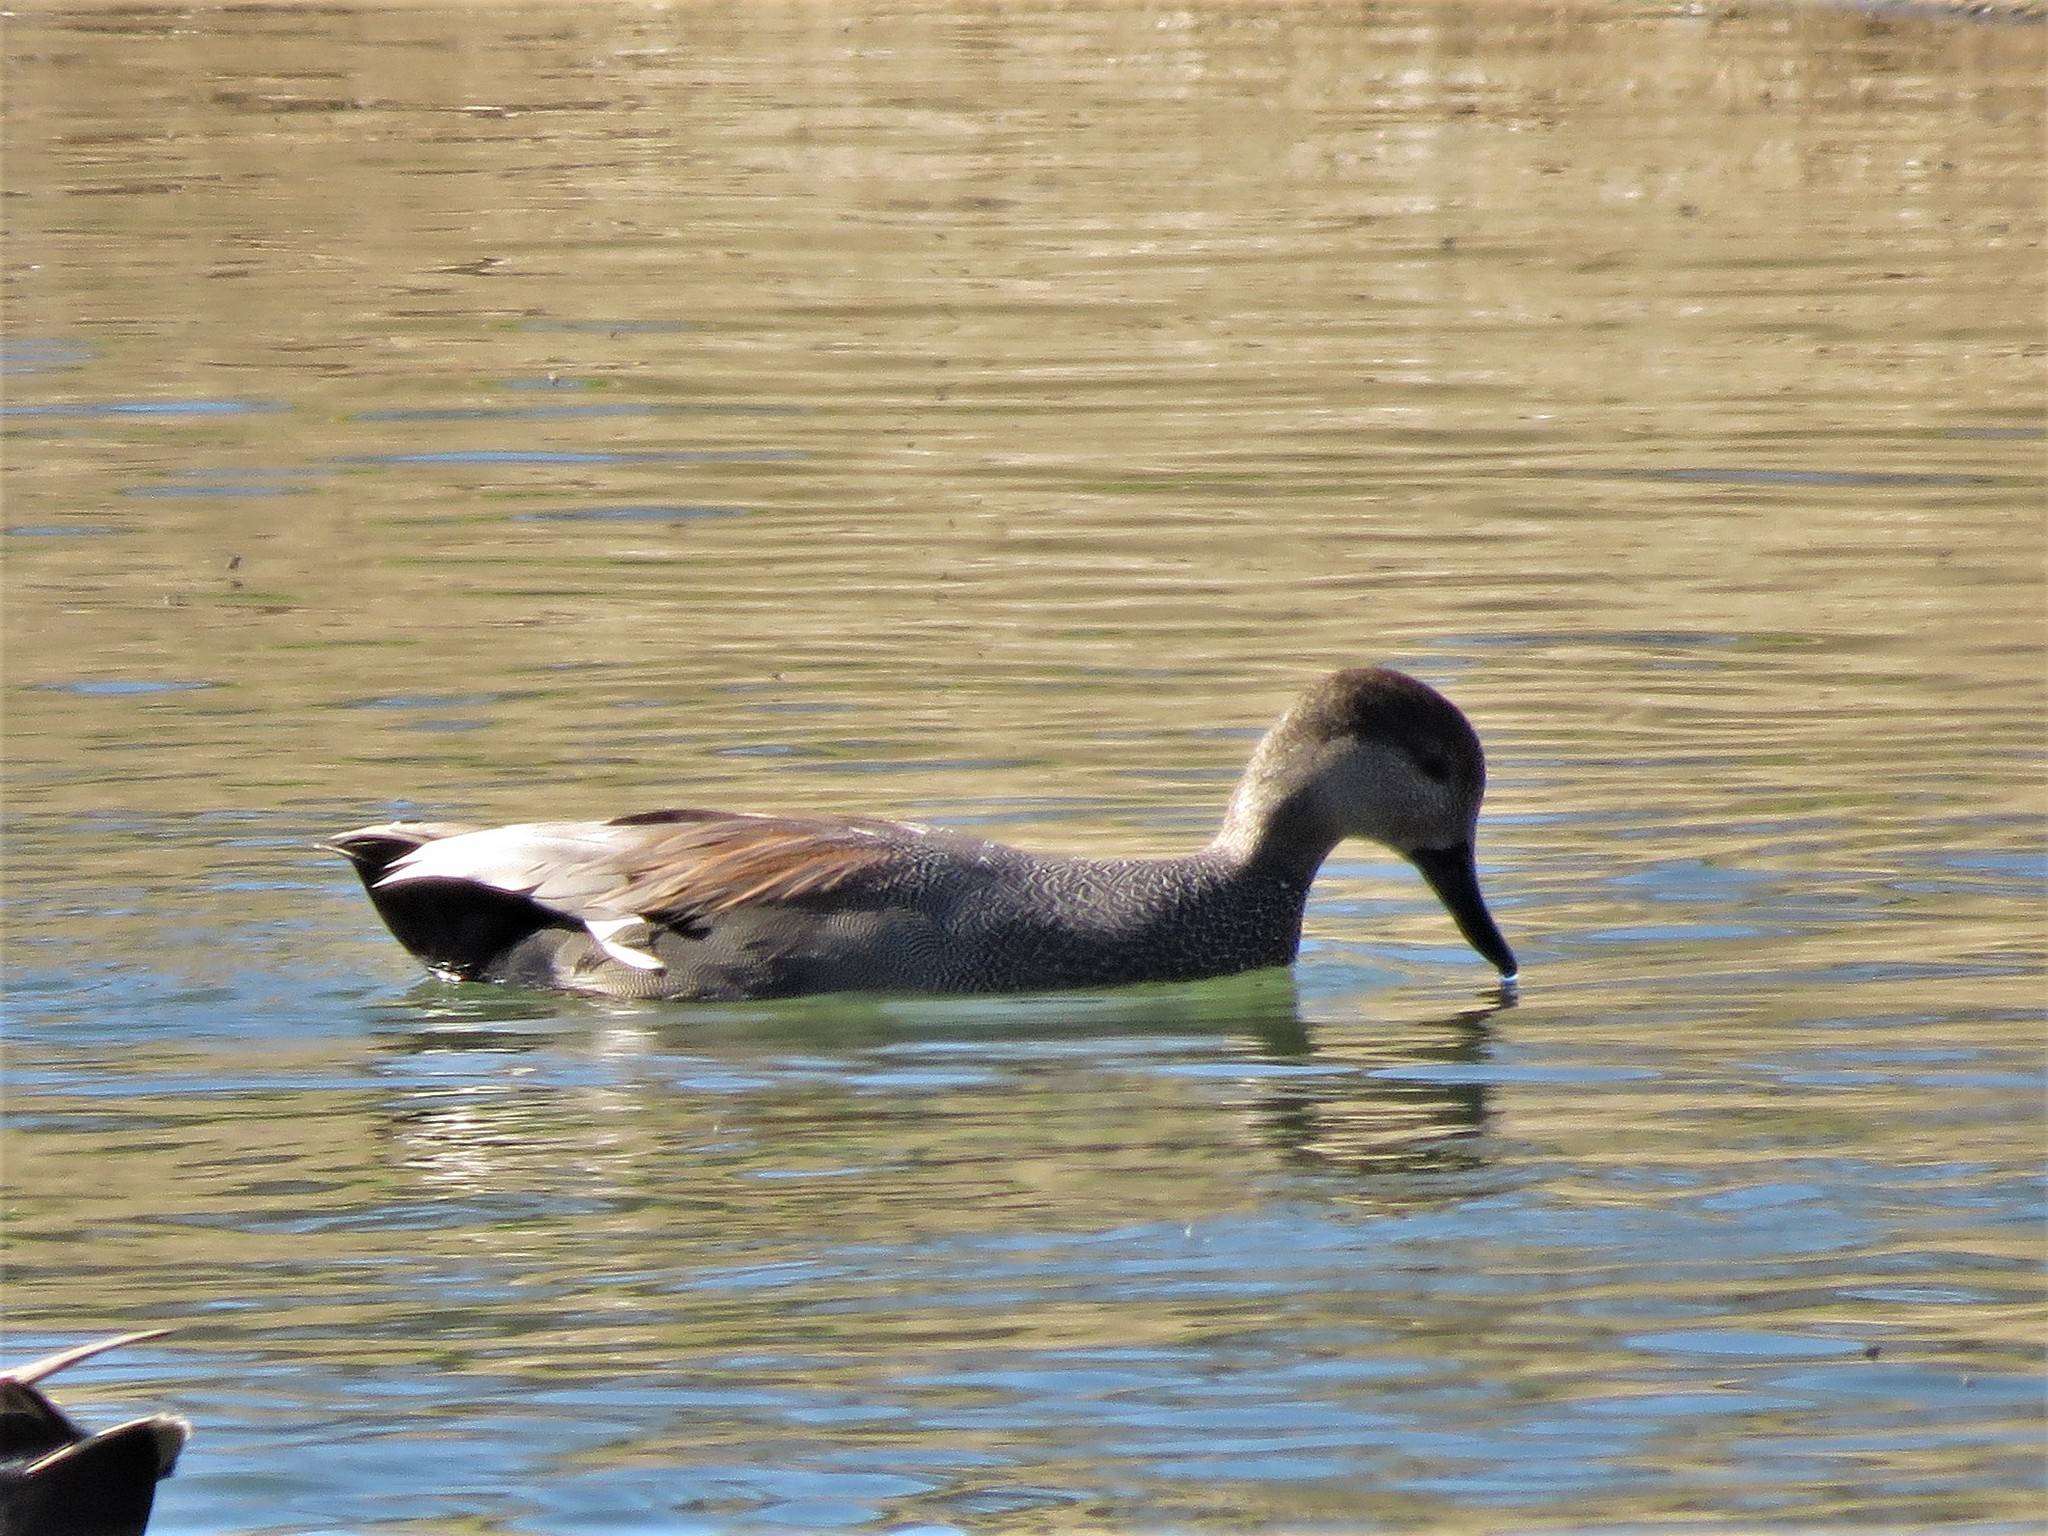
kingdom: Animalia
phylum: Chordata
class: Aves
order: Anseriformes
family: Anatidae
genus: Mareca
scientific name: Mareca strepera
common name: Gadwall
